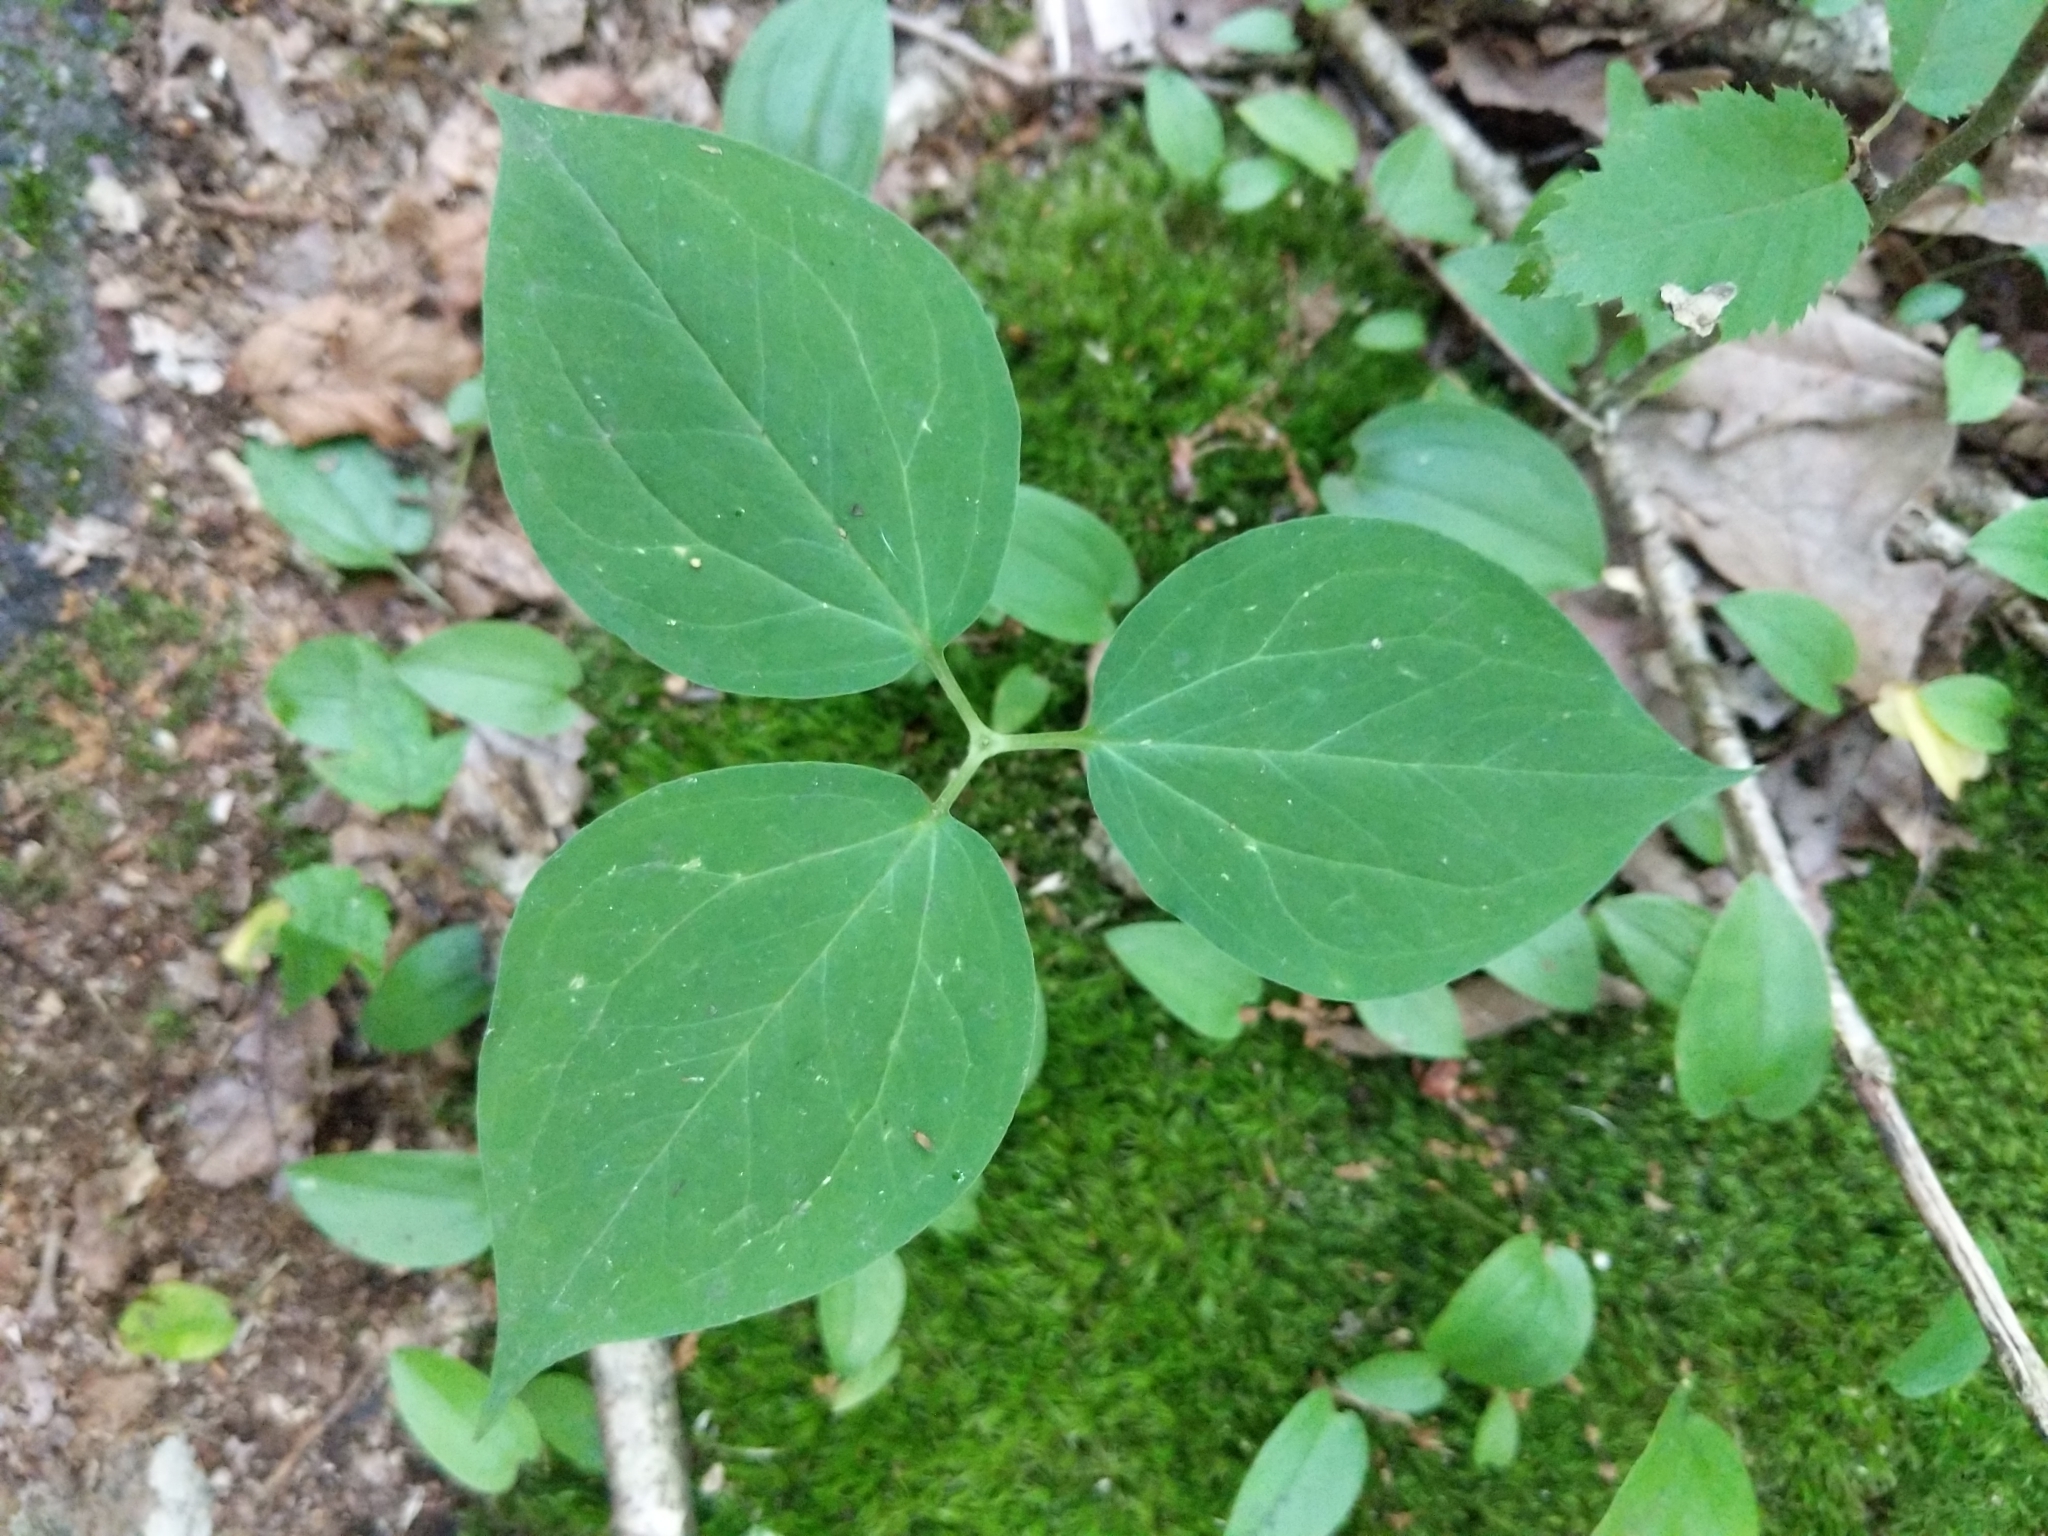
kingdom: Plantae
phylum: Tracheophyta
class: Liliopsida
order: Liliales
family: Melanthiaceae
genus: Trillium
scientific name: Trillium undulatum
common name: Paint trillium
